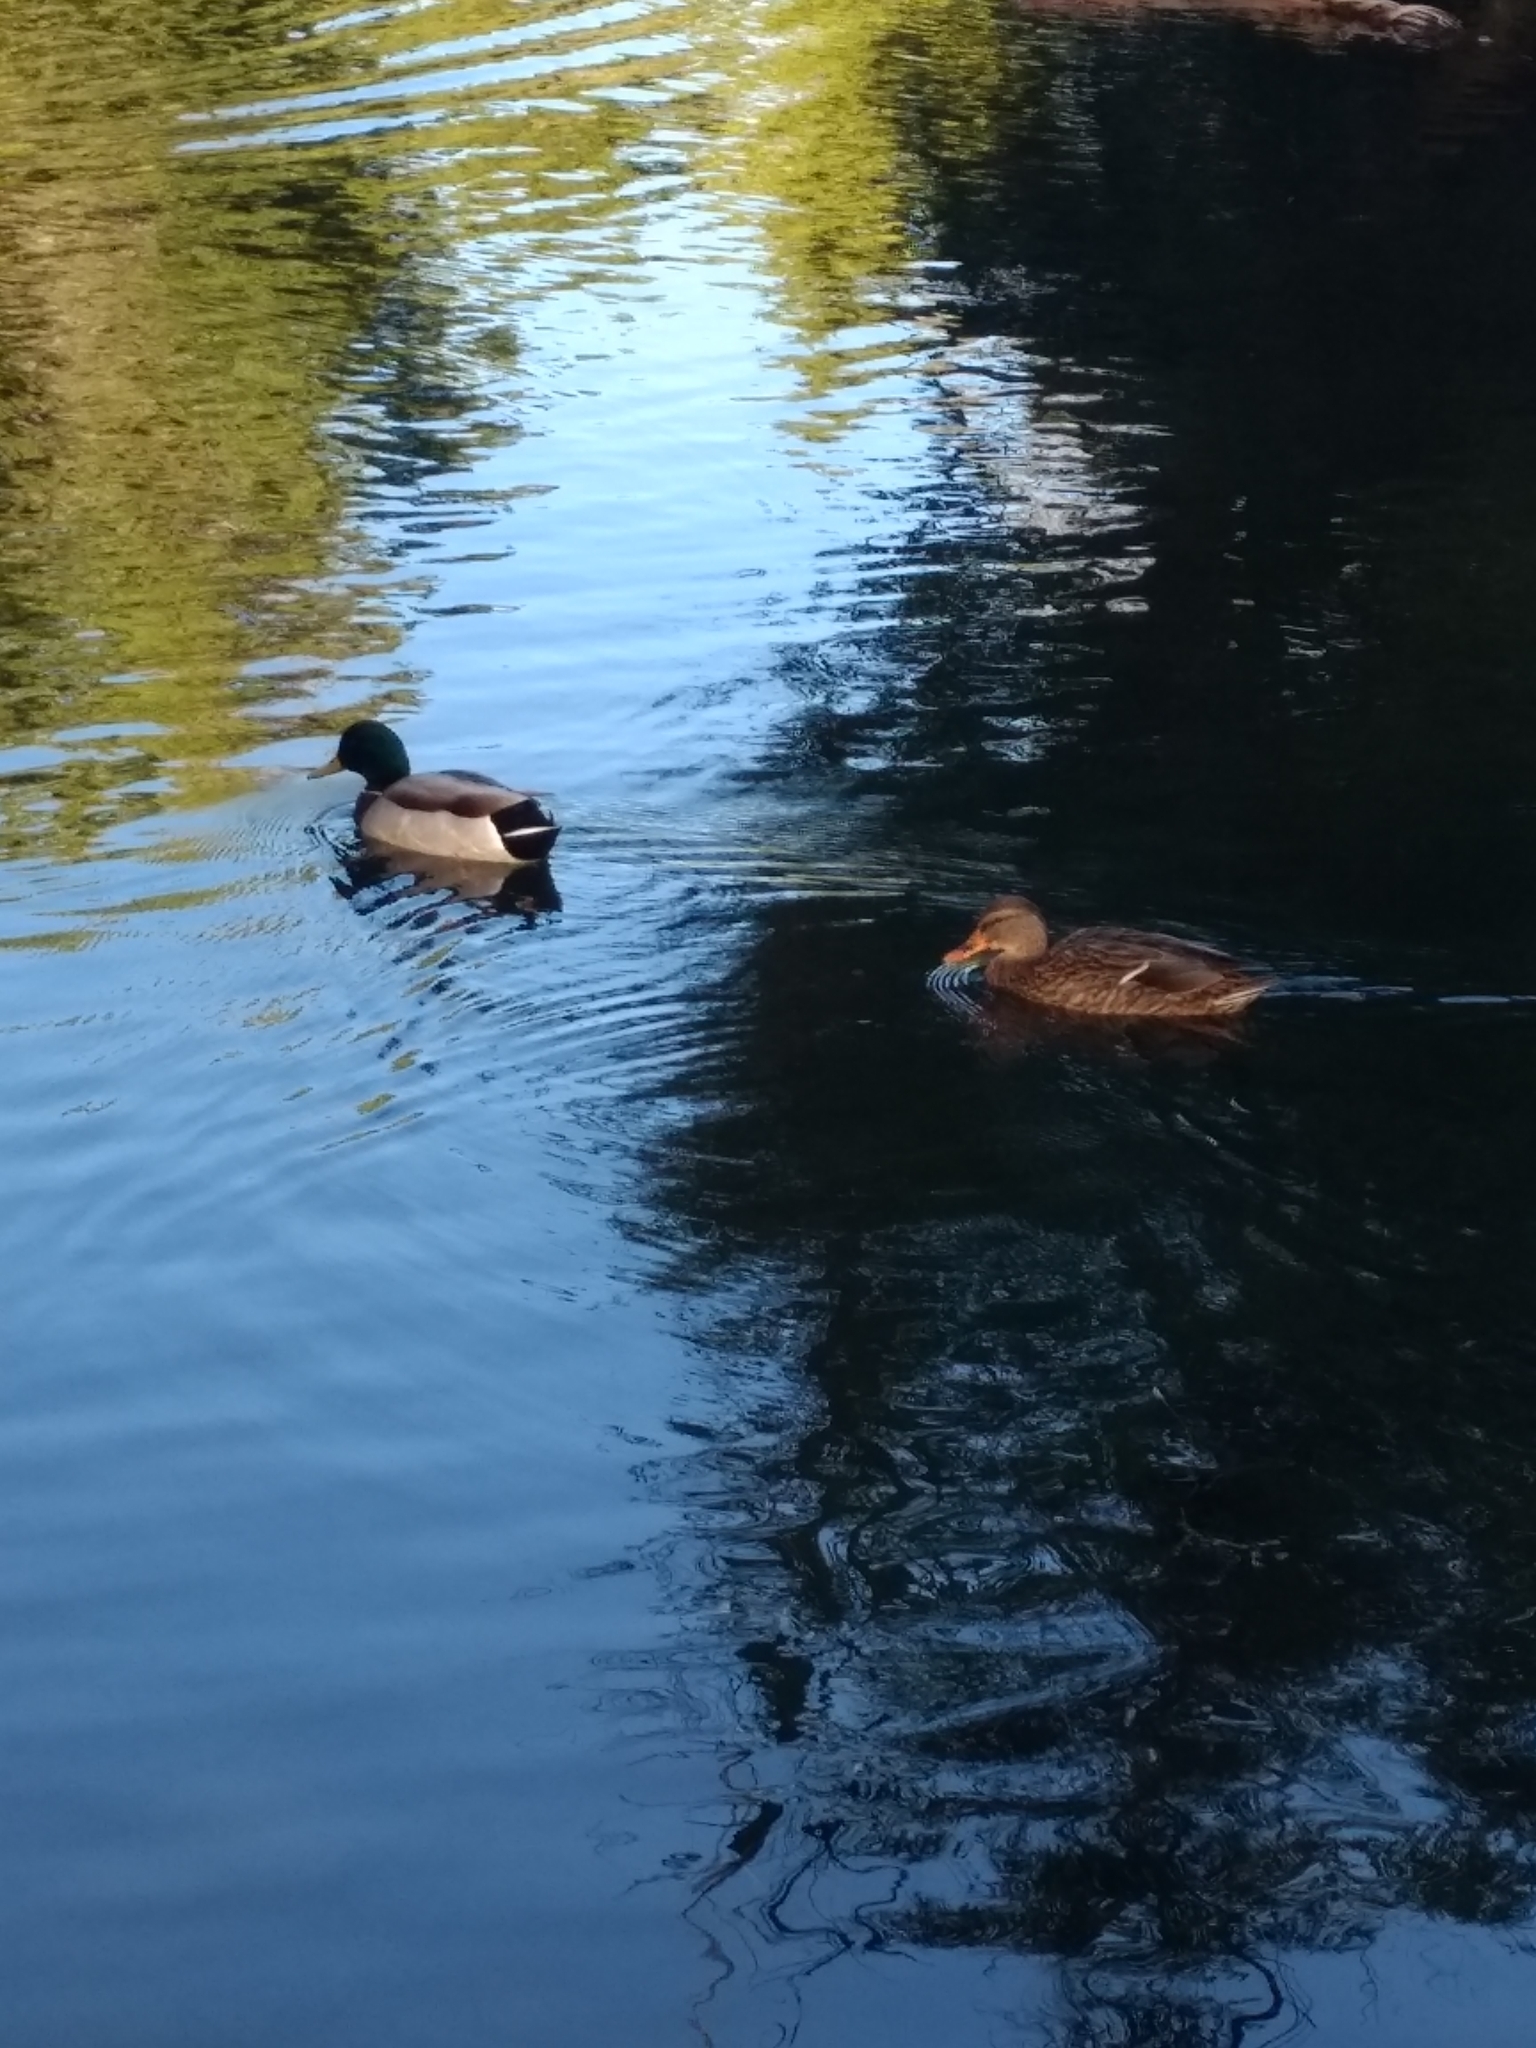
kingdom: Animalia
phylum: Chordata
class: Aves
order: Anseriformes
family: Anatidae
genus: Anas
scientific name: Anas platyrhynchos
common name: Mallard
